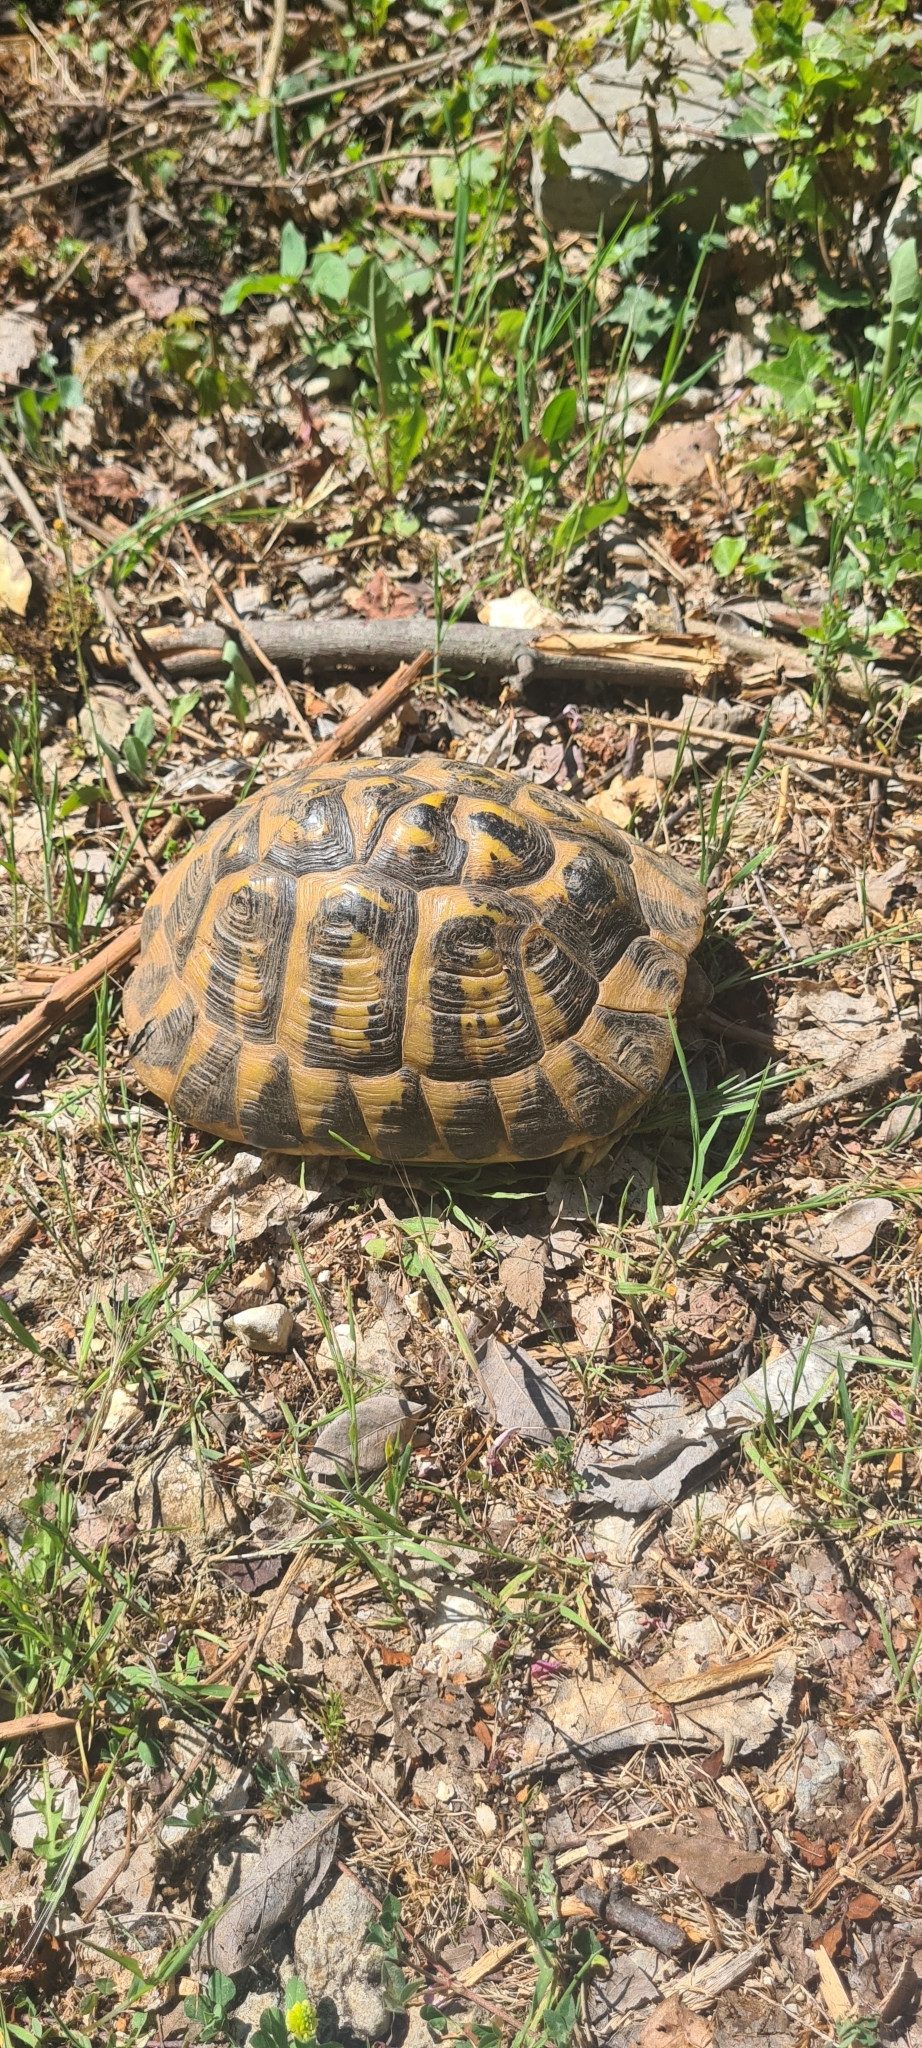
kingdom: Animalia
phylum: Chordata
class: Testudines
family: Testudinidae
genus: Testudo
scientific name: Testudo hermanni
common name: Hermann's tortoise
